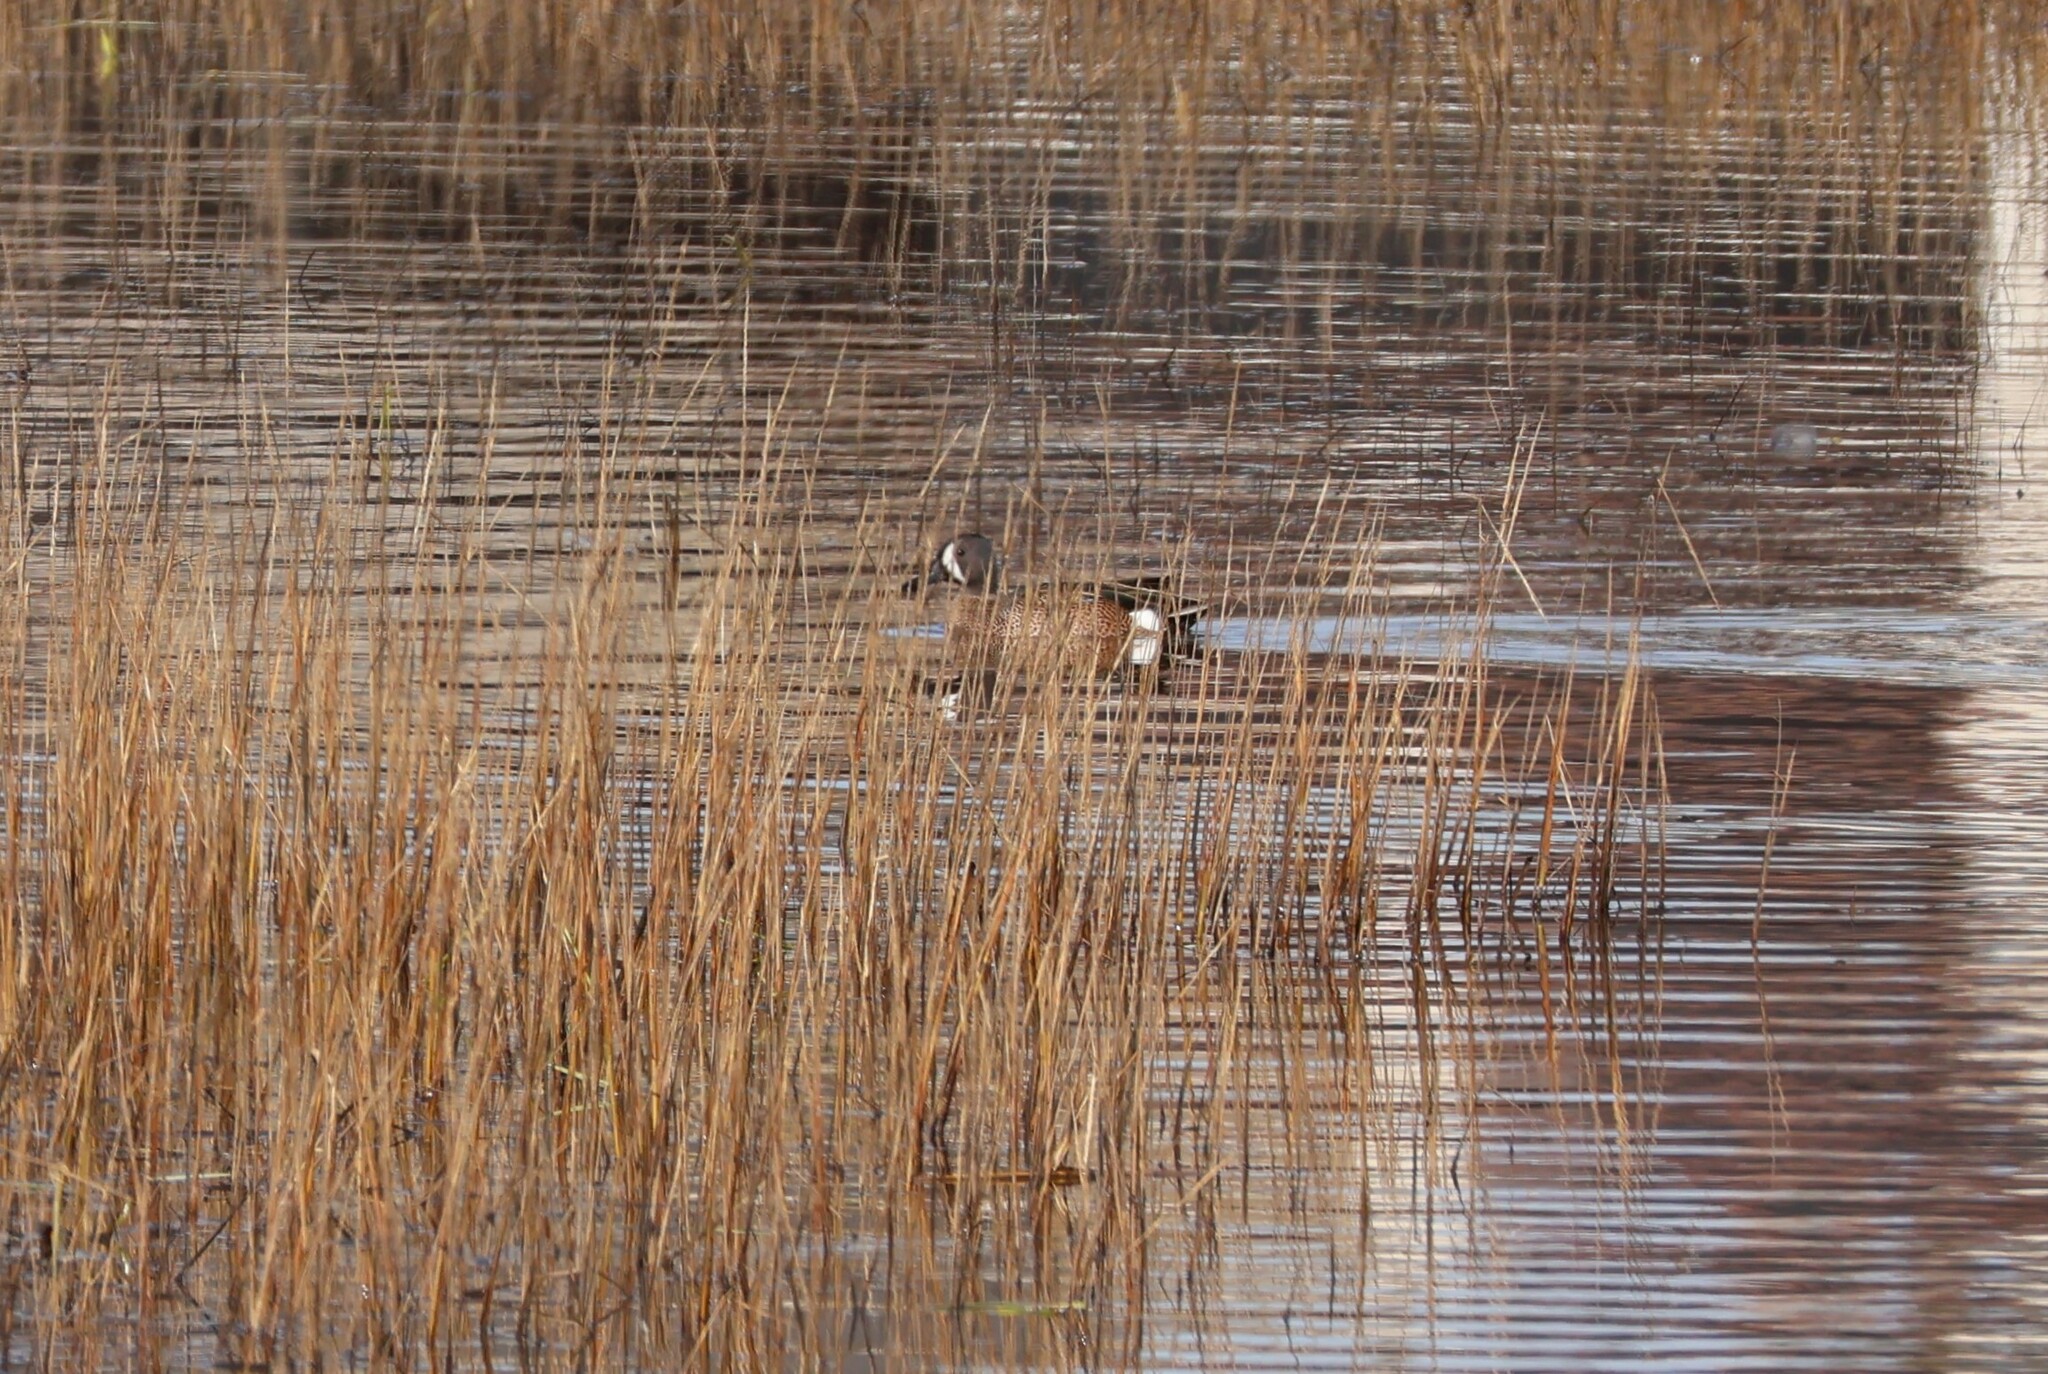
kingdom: Animalia
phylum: Chordata
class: Aves
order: Anseriformes
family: Anatidae
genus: Spatula
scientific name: Spatula discors
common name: Blue-winged teal
